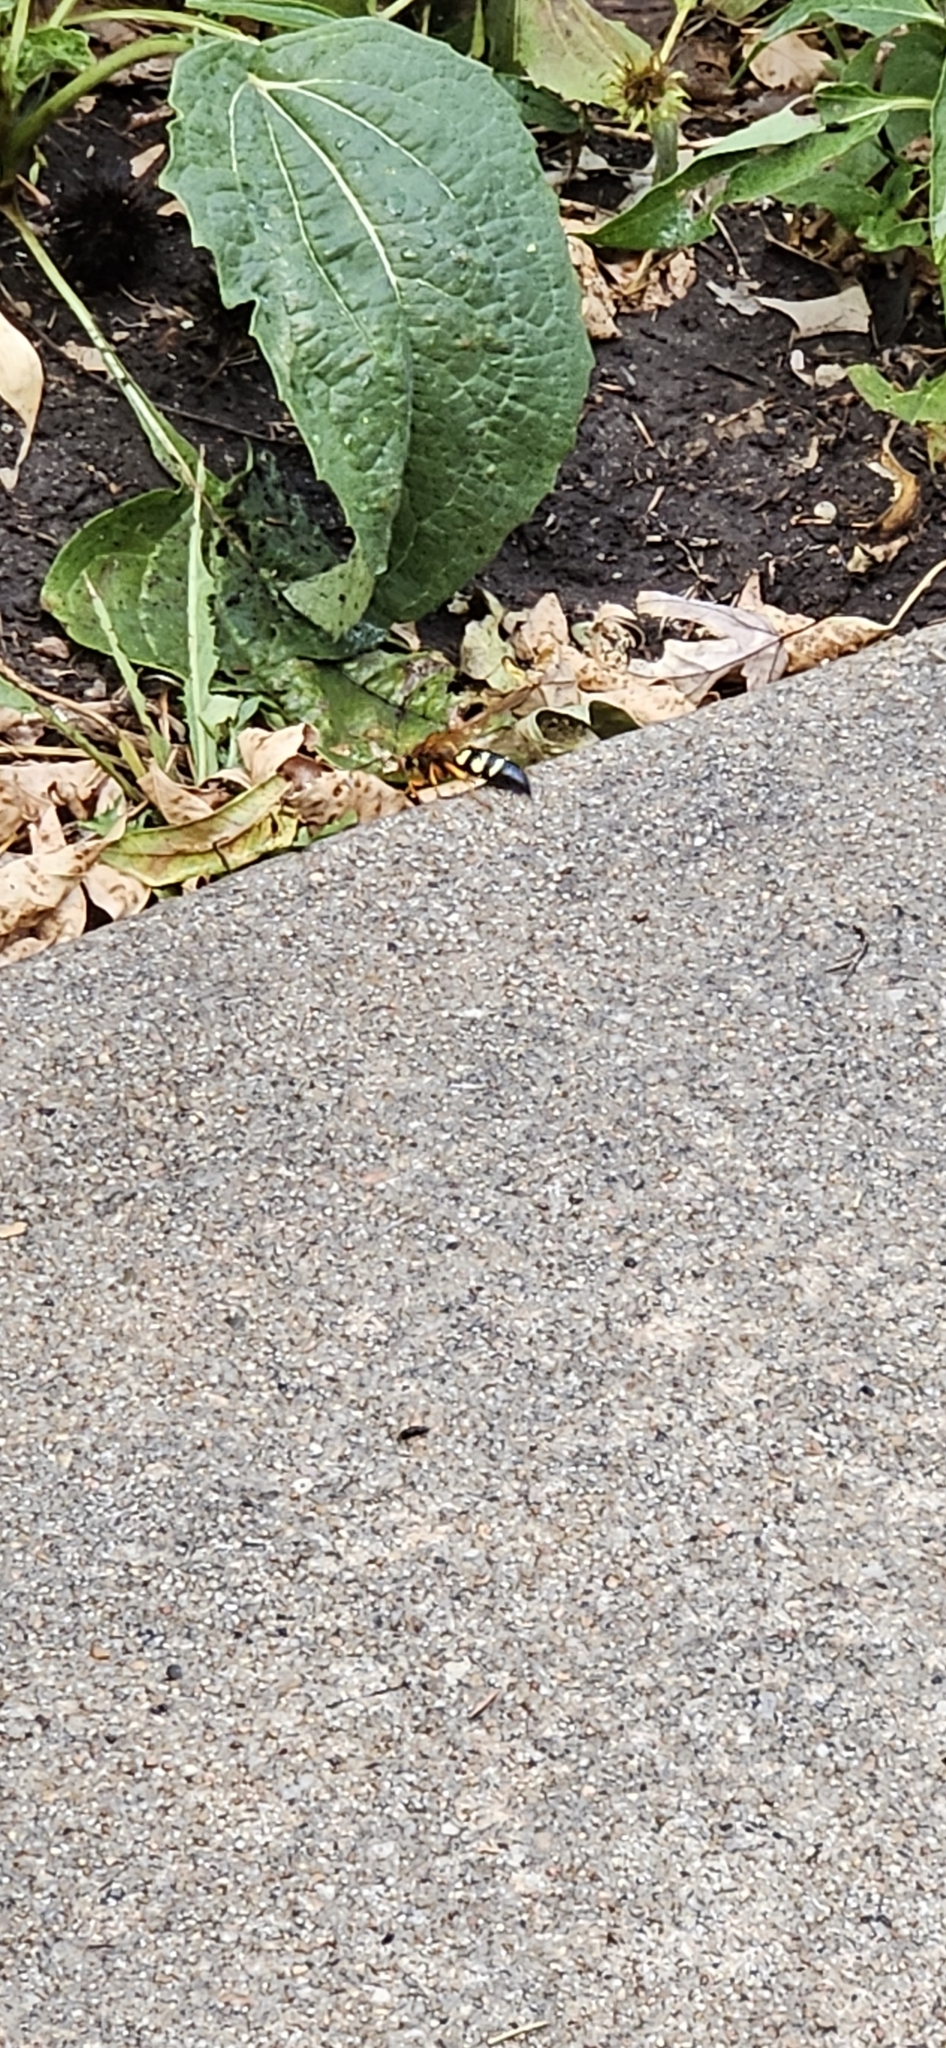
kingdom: Animalia
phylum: Arthropoda
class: Insecta
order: Hymenoptera
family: Crabronidae
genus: Sphecius
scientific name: Sphecius speciosus
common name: Cicada killer
